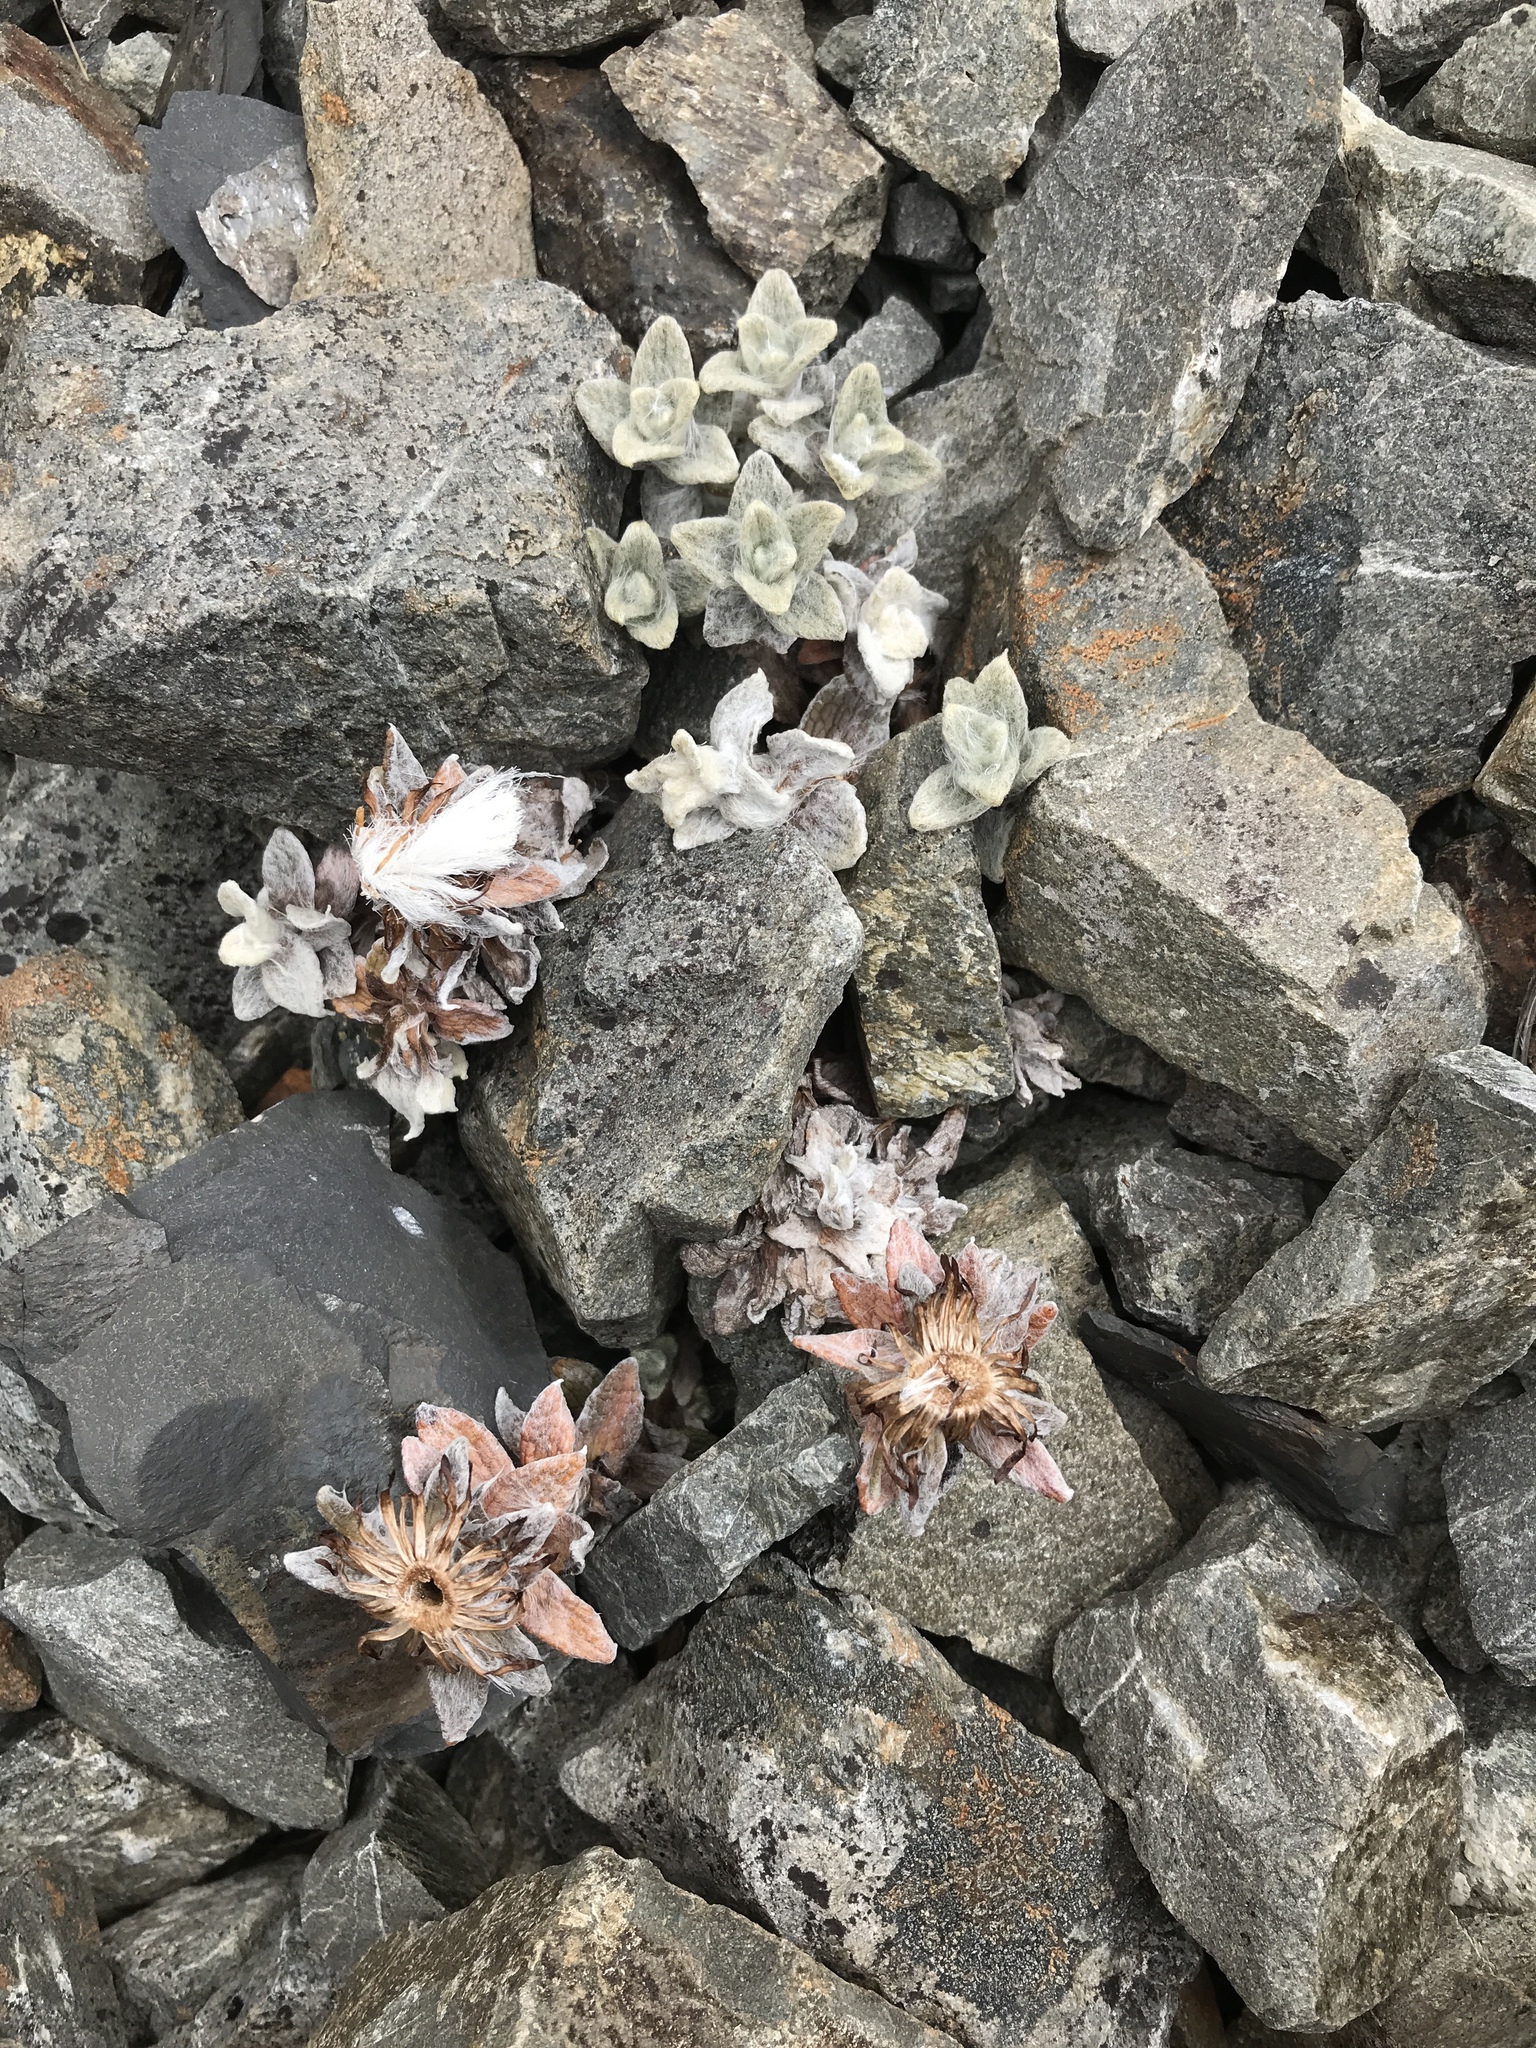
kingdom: Plantae
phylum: Tracheophyta
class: Magnoliopsida
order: Asterales
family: Asteraceae
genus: Haastia
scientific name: Haastia sinclairii
